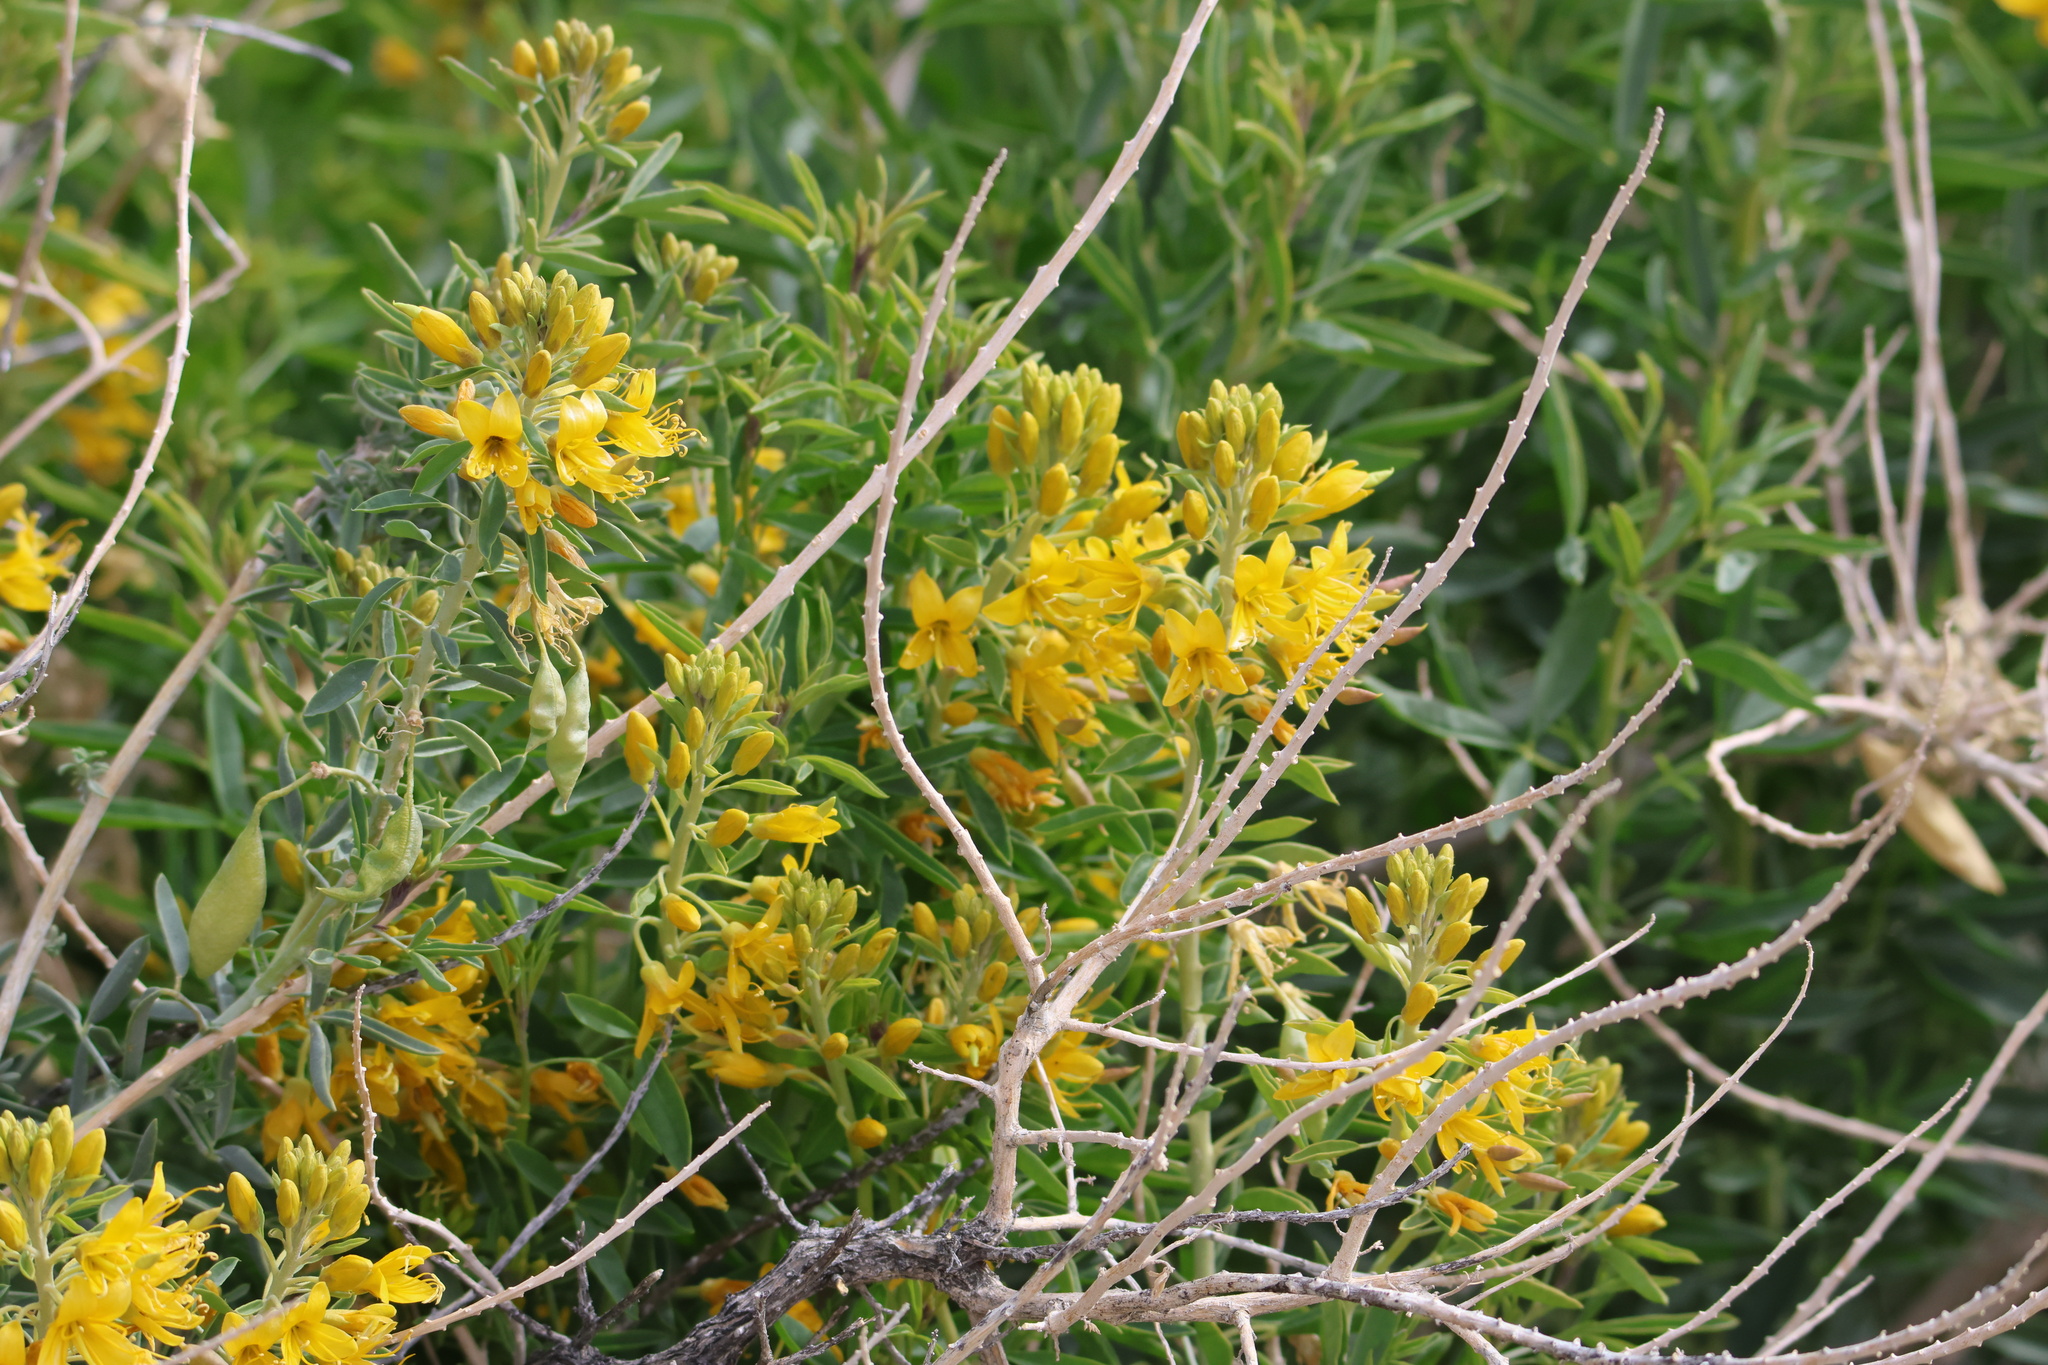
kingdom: Plantae
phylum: Tracheophyta
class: Magnoliopsida
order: Brassicales
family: Cleomaceae
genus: Cleomella
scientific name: Cleomella arborea
